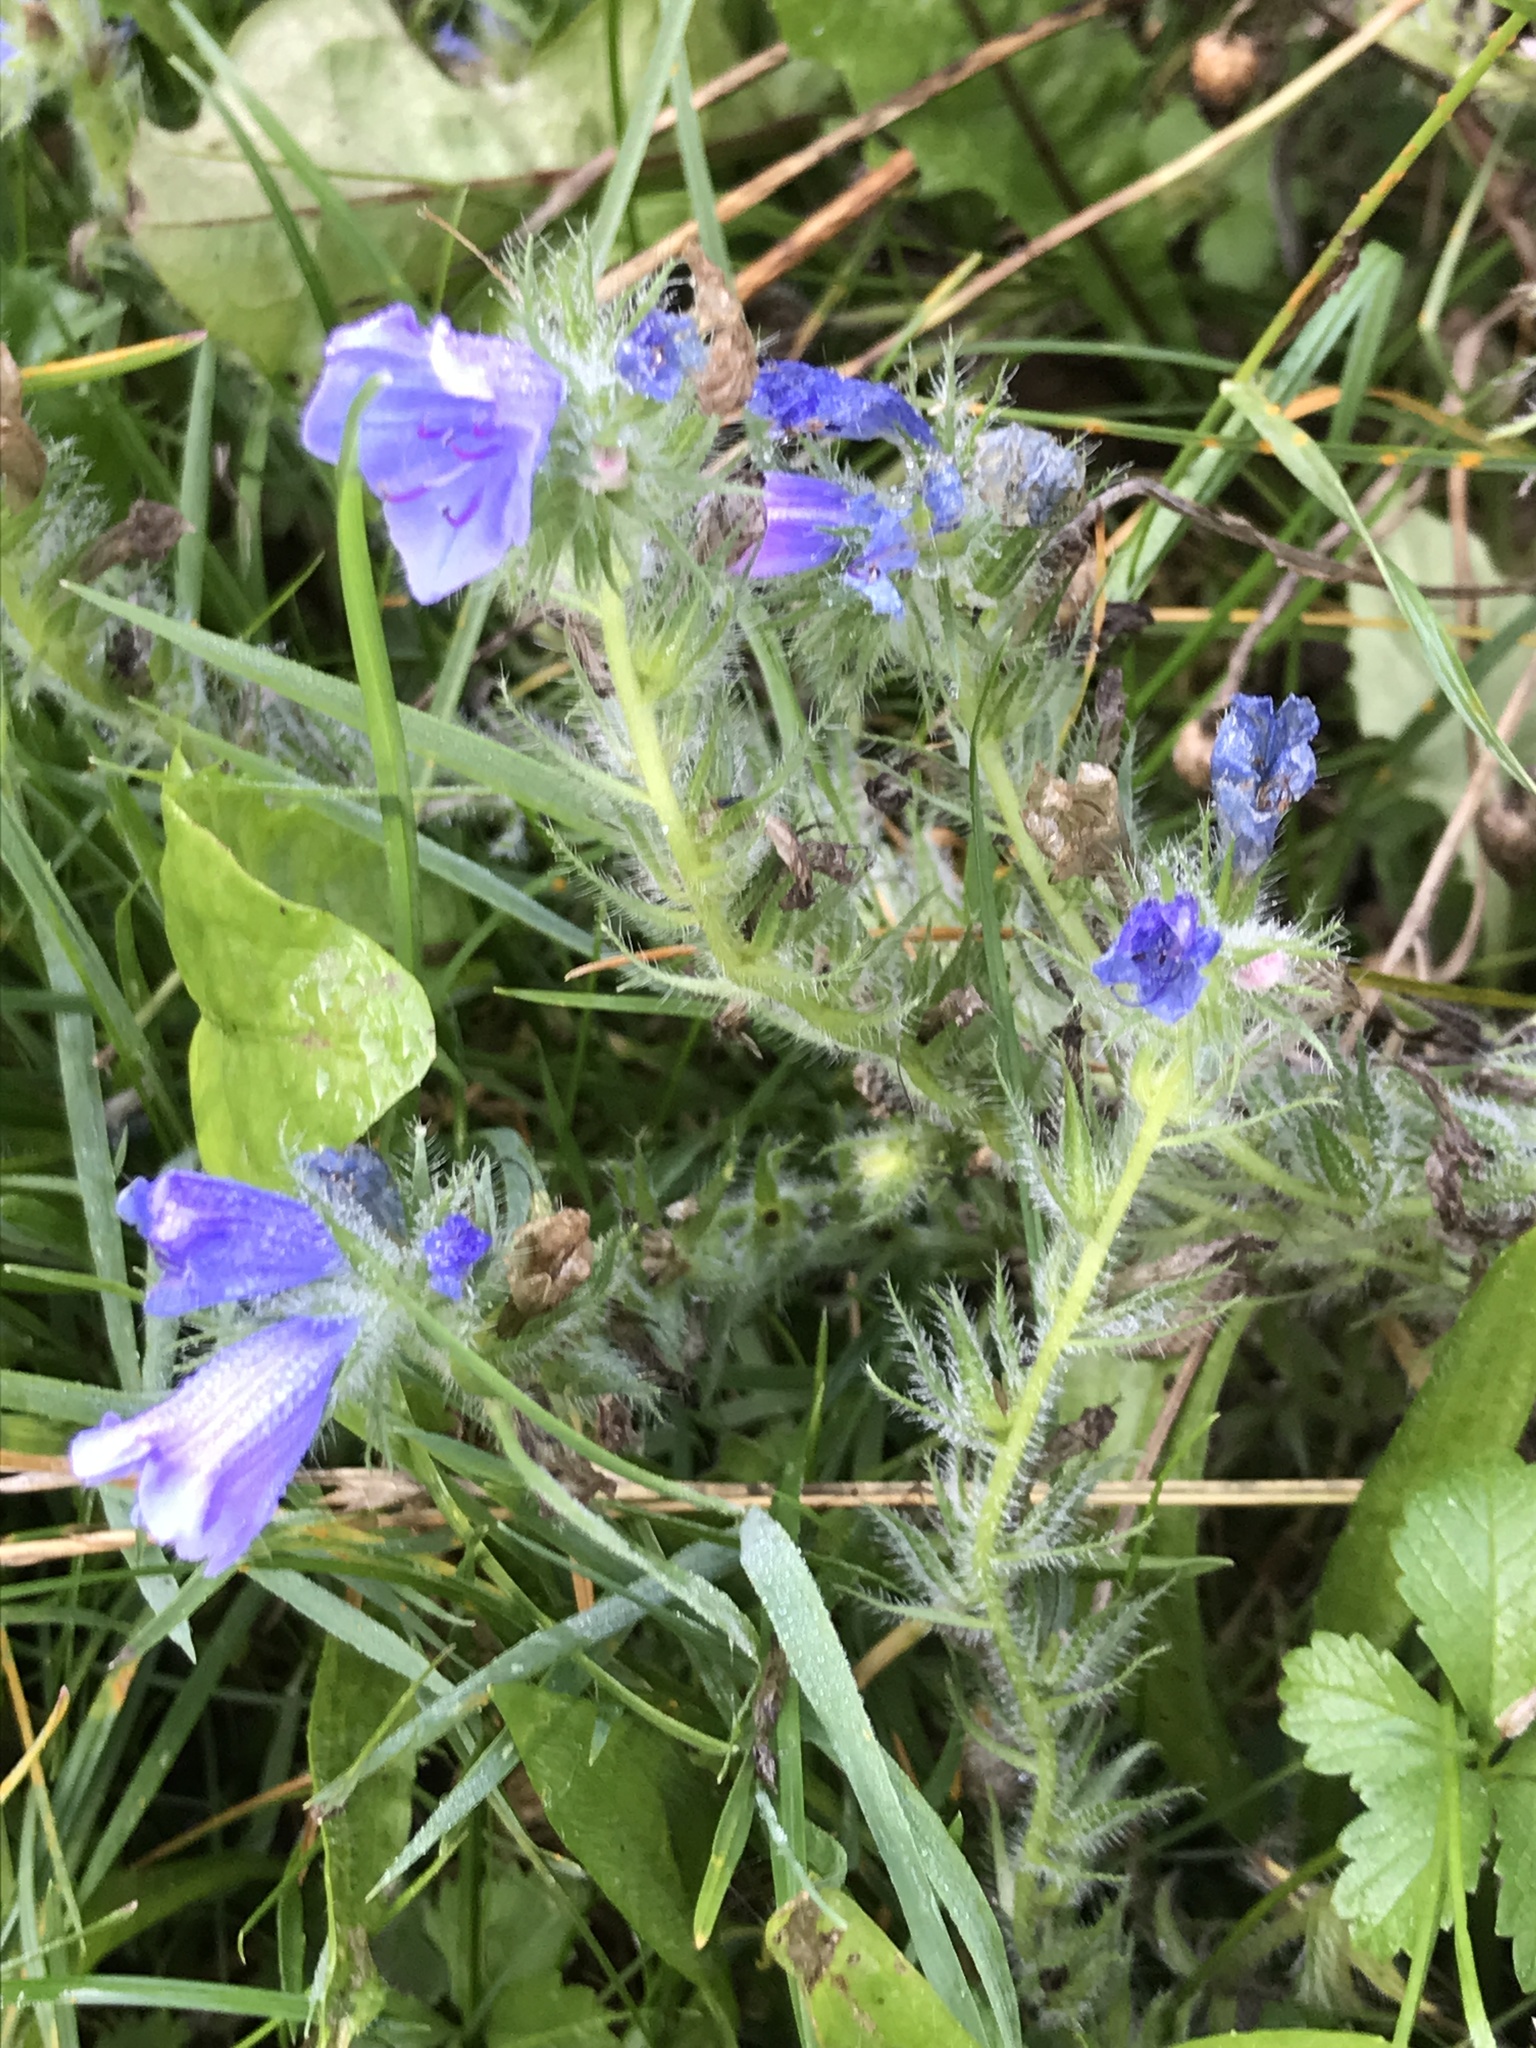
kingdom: Plantae
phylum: Tracheophyta
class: Magnoliopsida
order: Boraginales
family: Boraginaceae
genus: Echium
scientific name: Echium vulgare
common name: Common viper's bugloss
